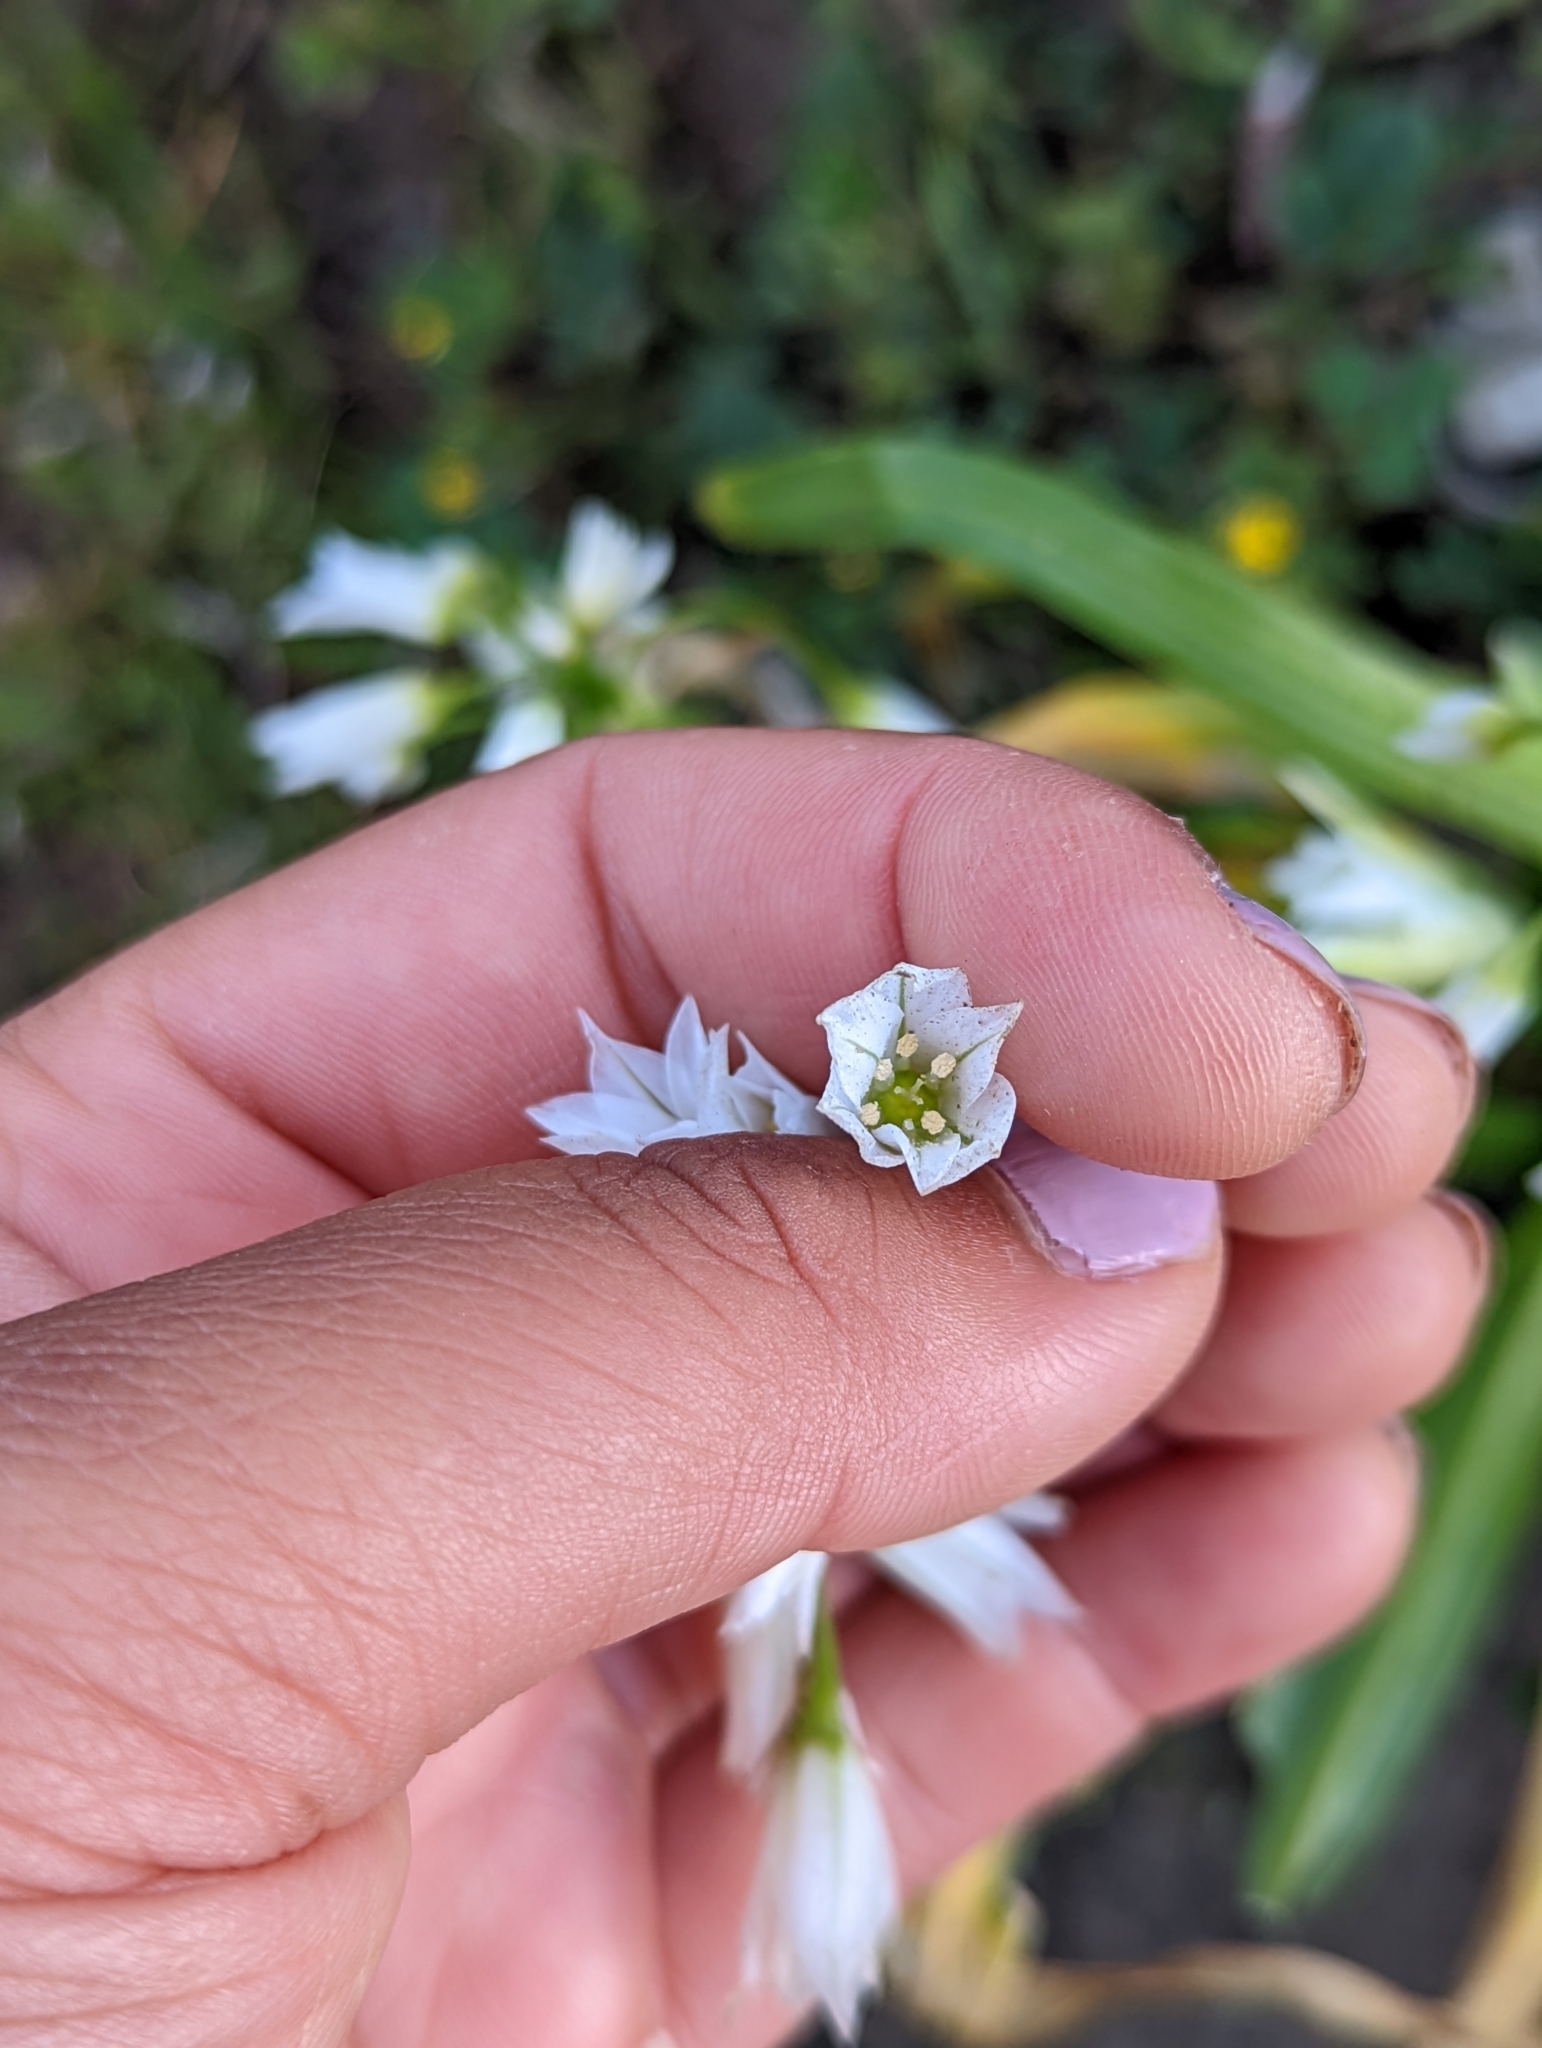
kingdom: Plantae
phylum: Tracheophyta
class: Liliopsida
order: Asparagales
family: Amaryllidaceae
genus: Allium
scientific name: Allium triquetrum
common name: Three-cornered garlic
